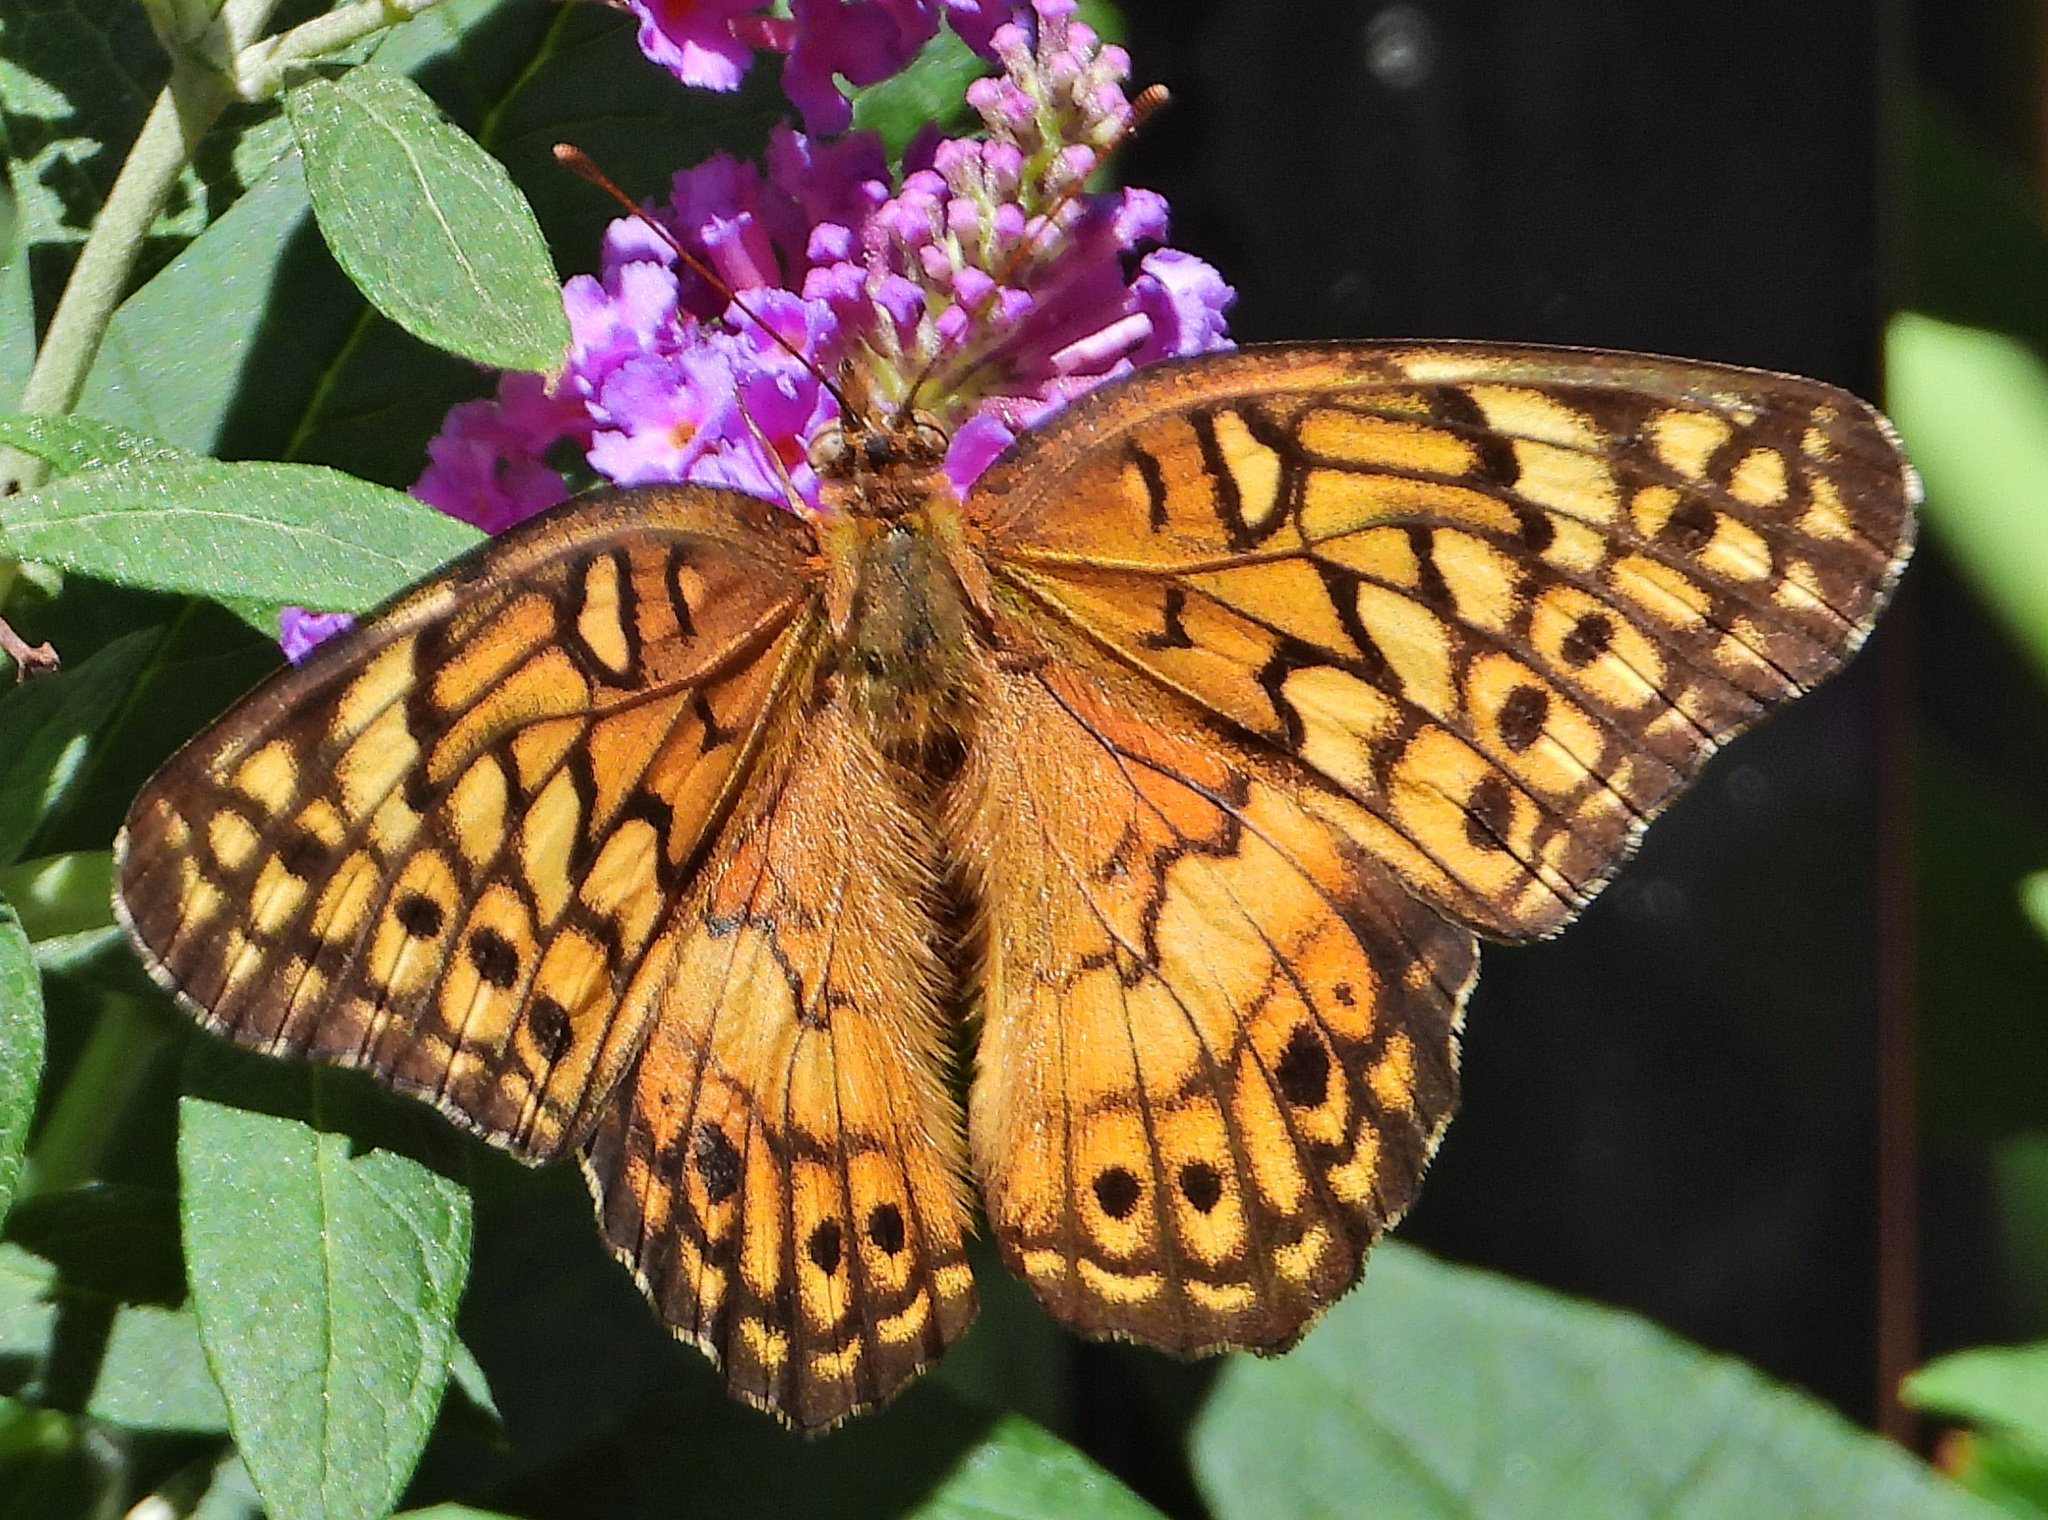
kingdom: Animalia
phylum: Arthropoda
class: Insecta
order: Lepidoptera
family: Nymphalidae
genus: Euptoieta
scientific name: Euptoieta claudia
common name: Variegated fritillary
